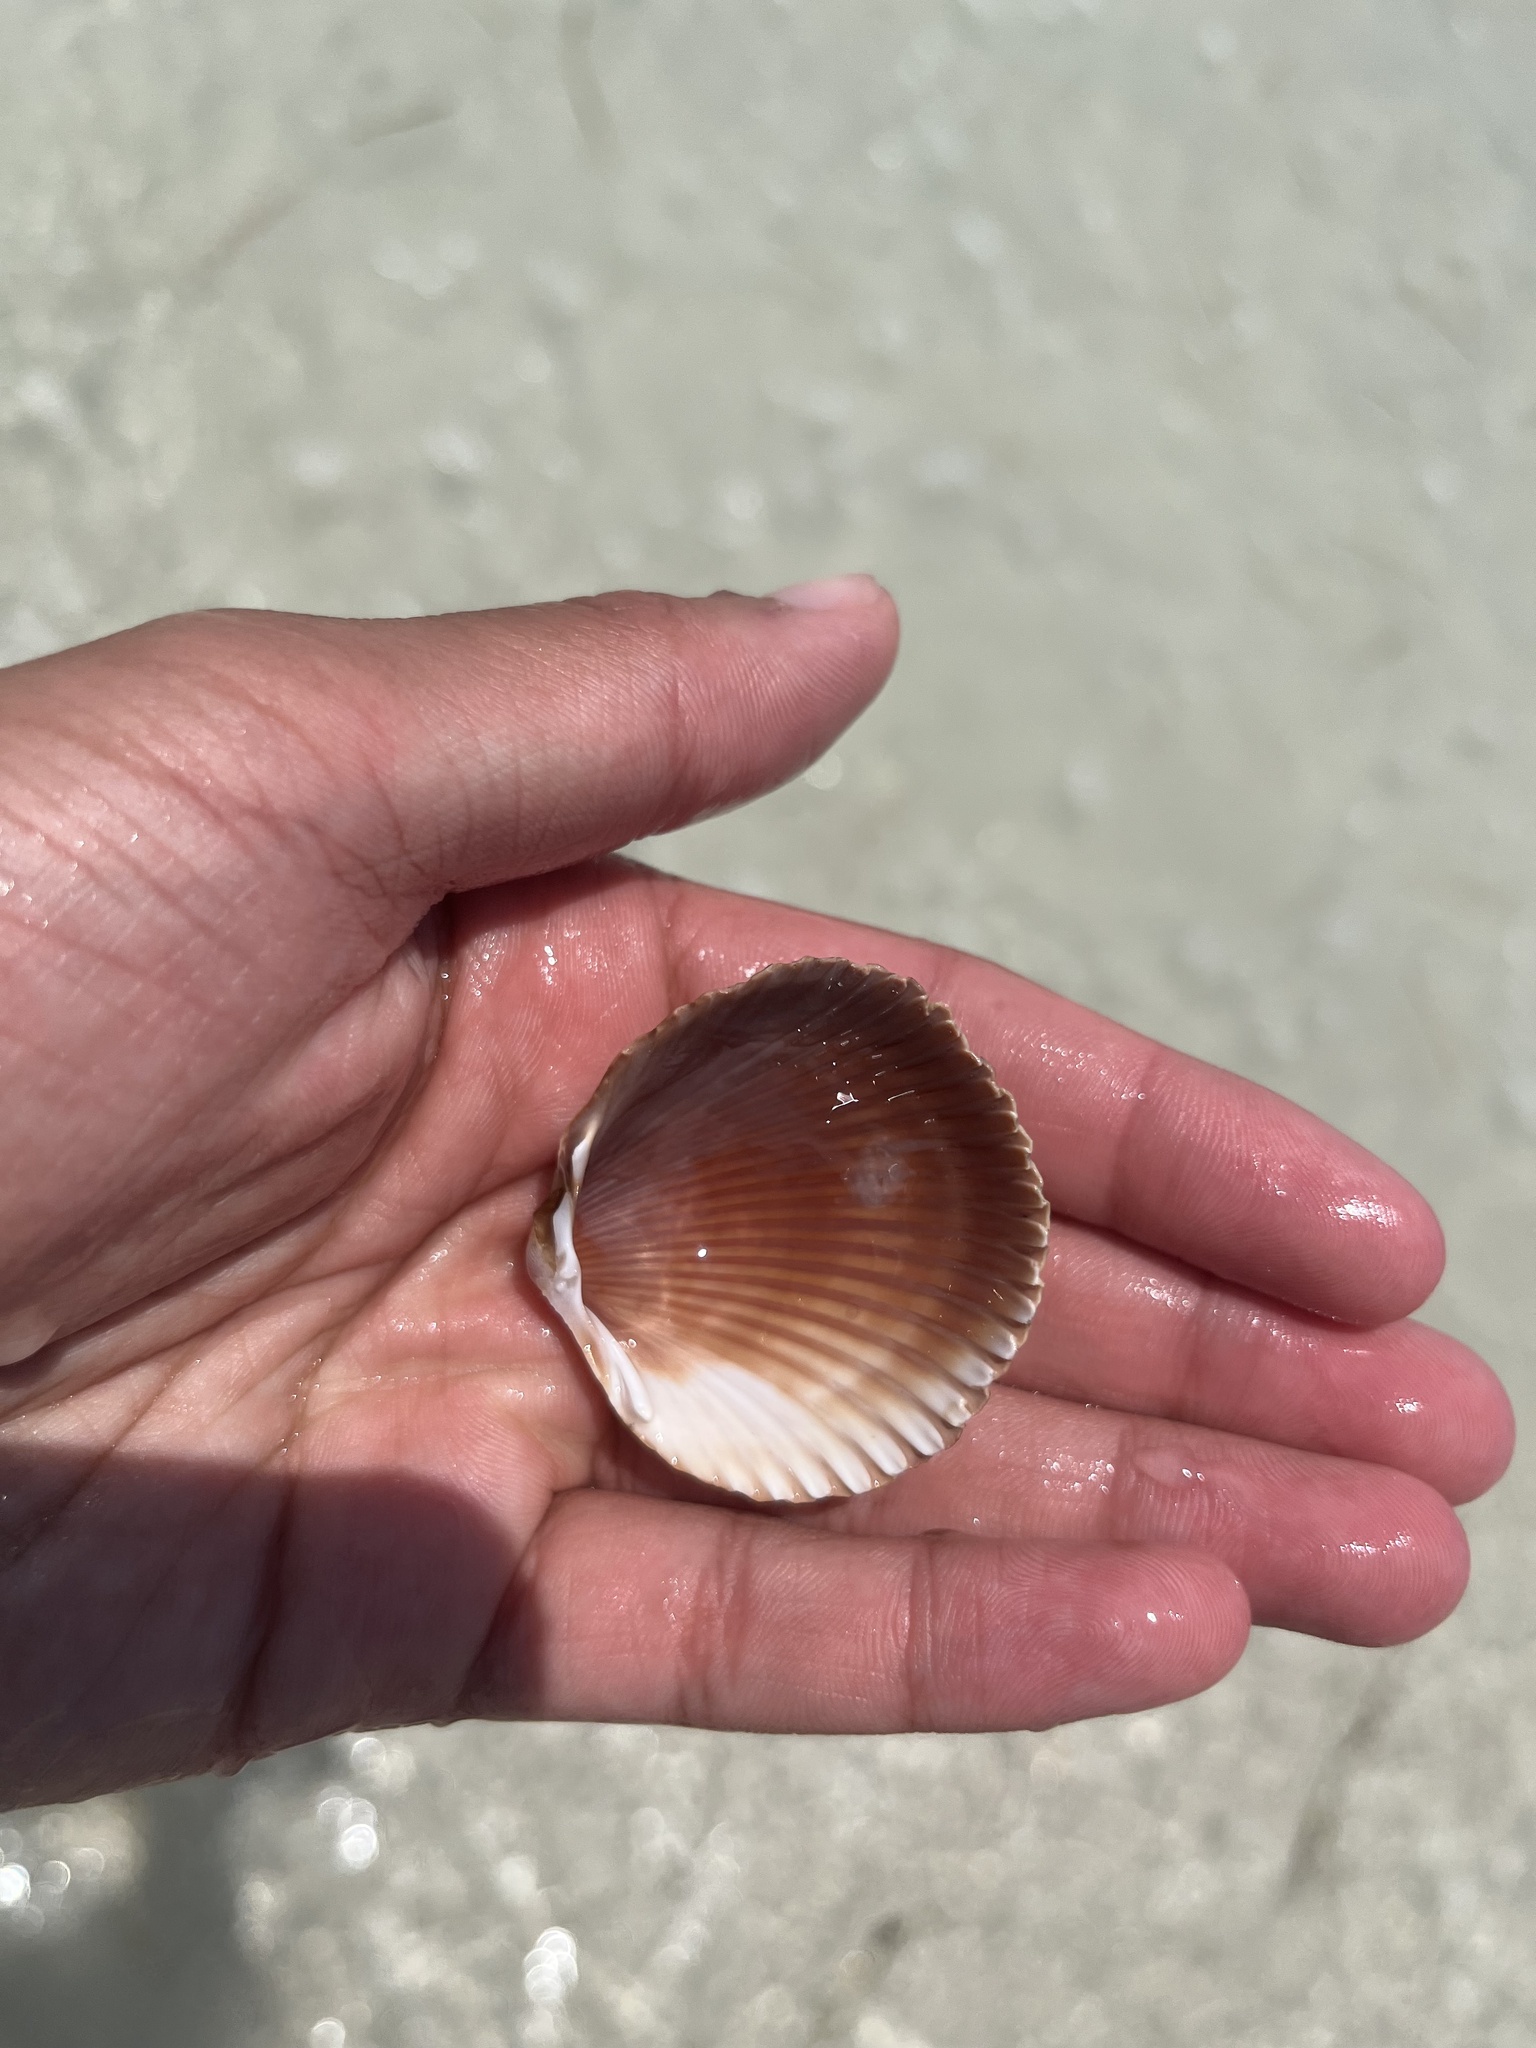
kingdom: Animalia
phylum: Mollusca
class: Bivalvia
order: Cardiida
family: Cardiidae
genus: Dinocardium
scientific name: Dinocardium robustum
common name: Atlantic giant cockle
